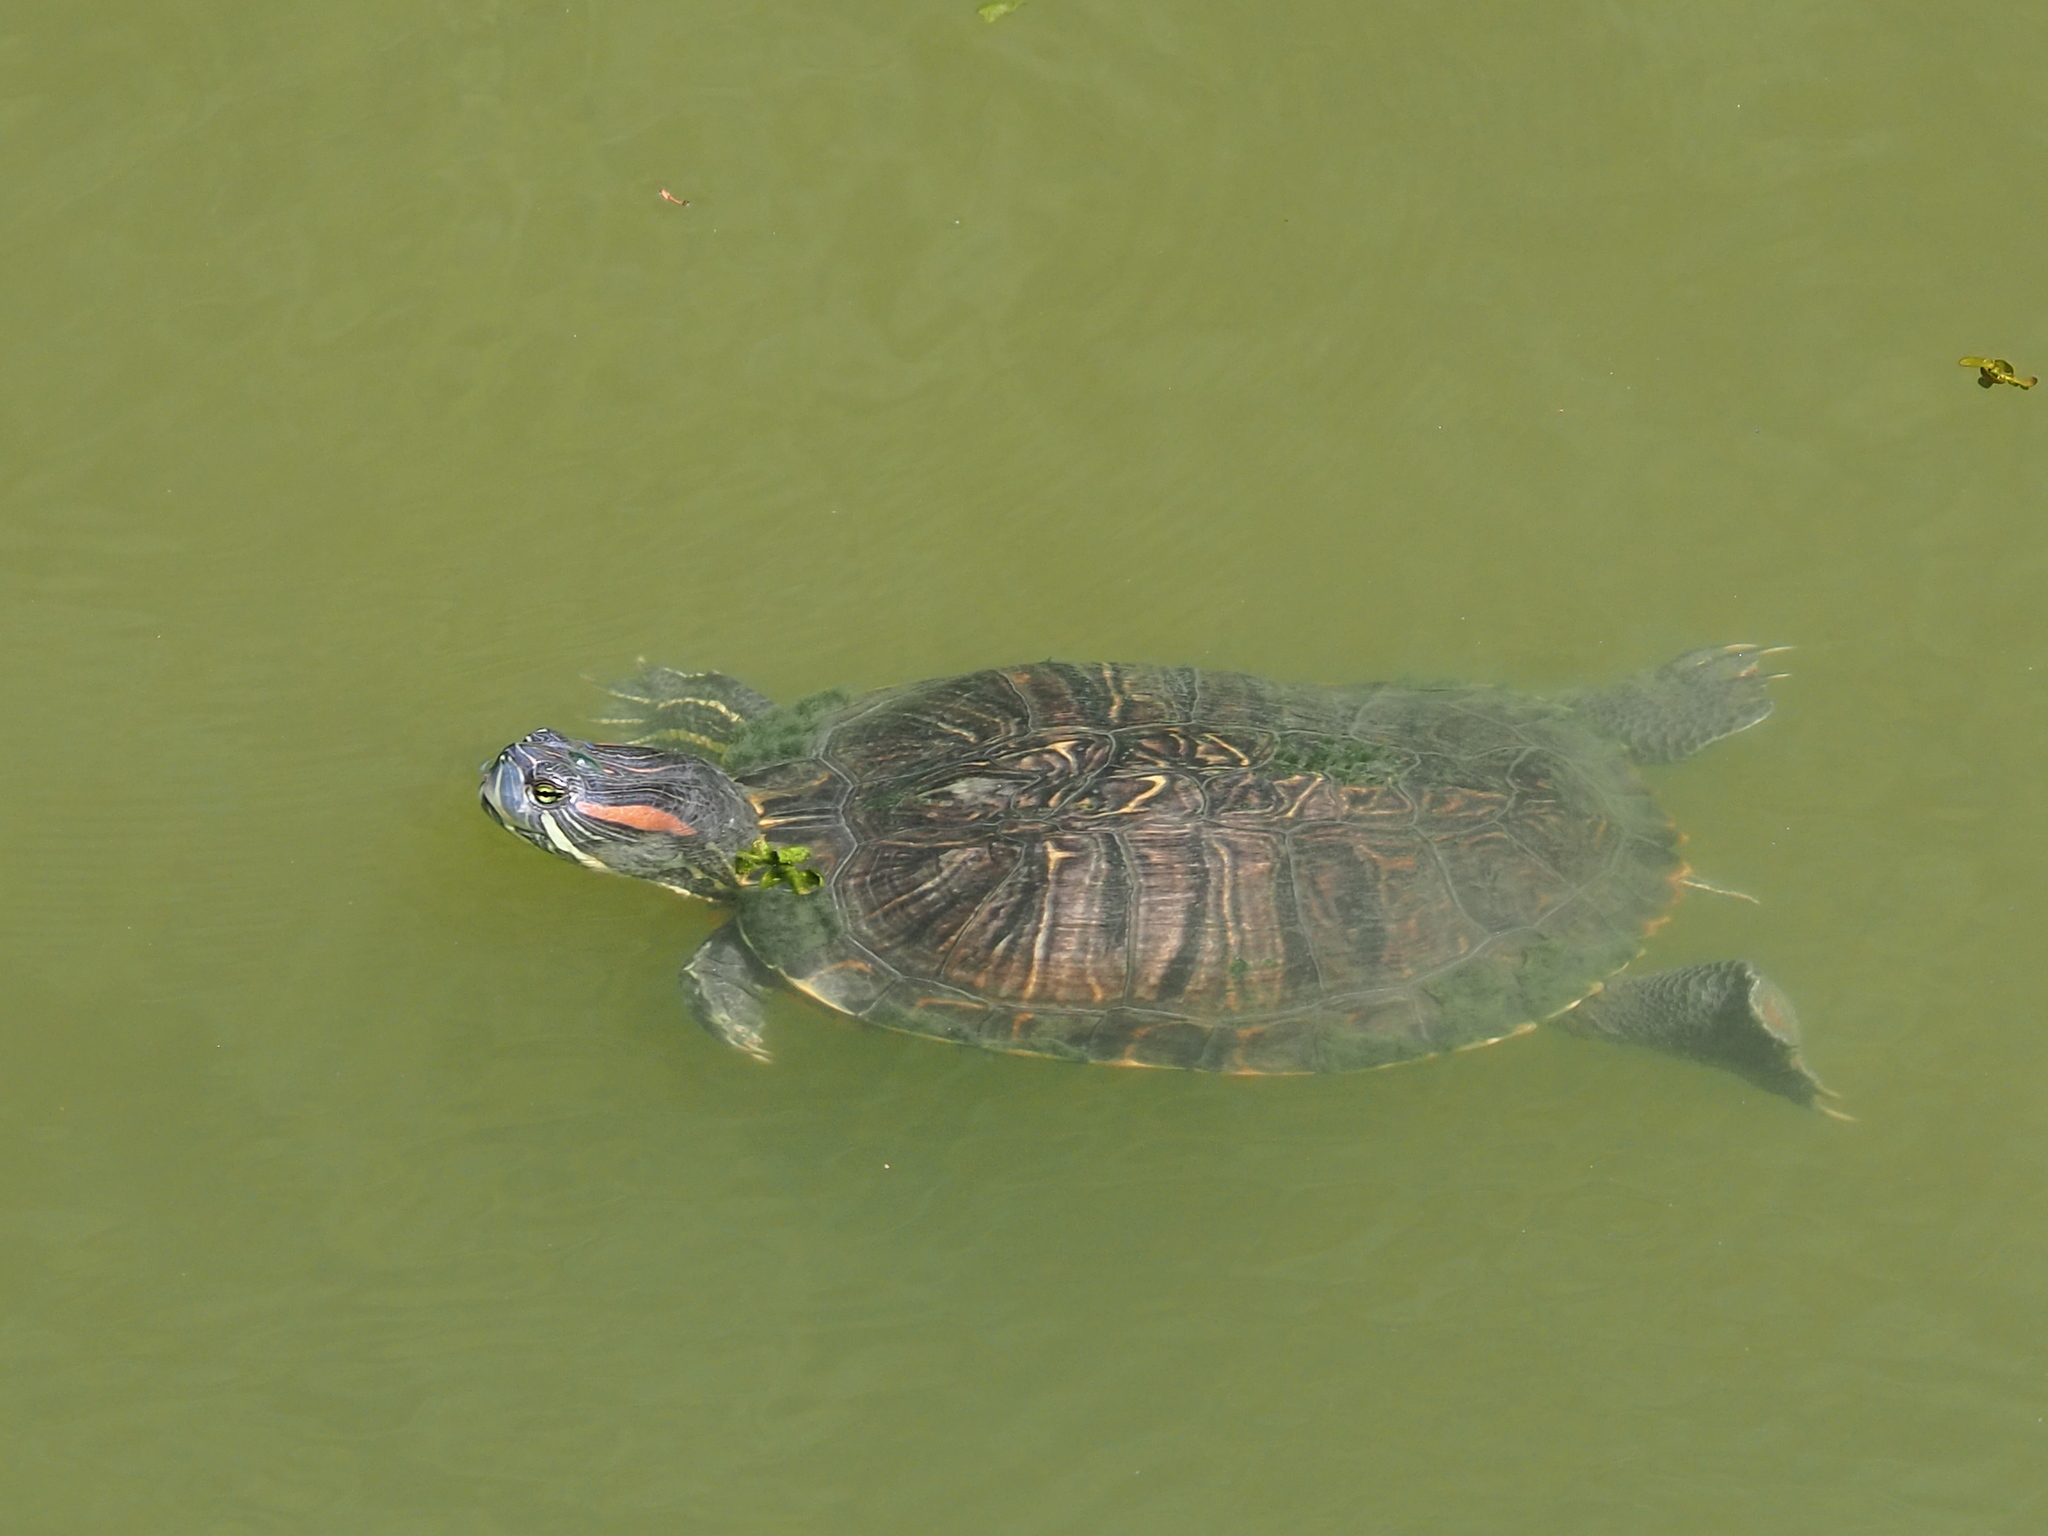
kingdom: Animalia
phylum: Chordata
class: Testudines
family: Emydidae
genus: Trachemys
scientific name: Trachemys scripta
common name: Slider
